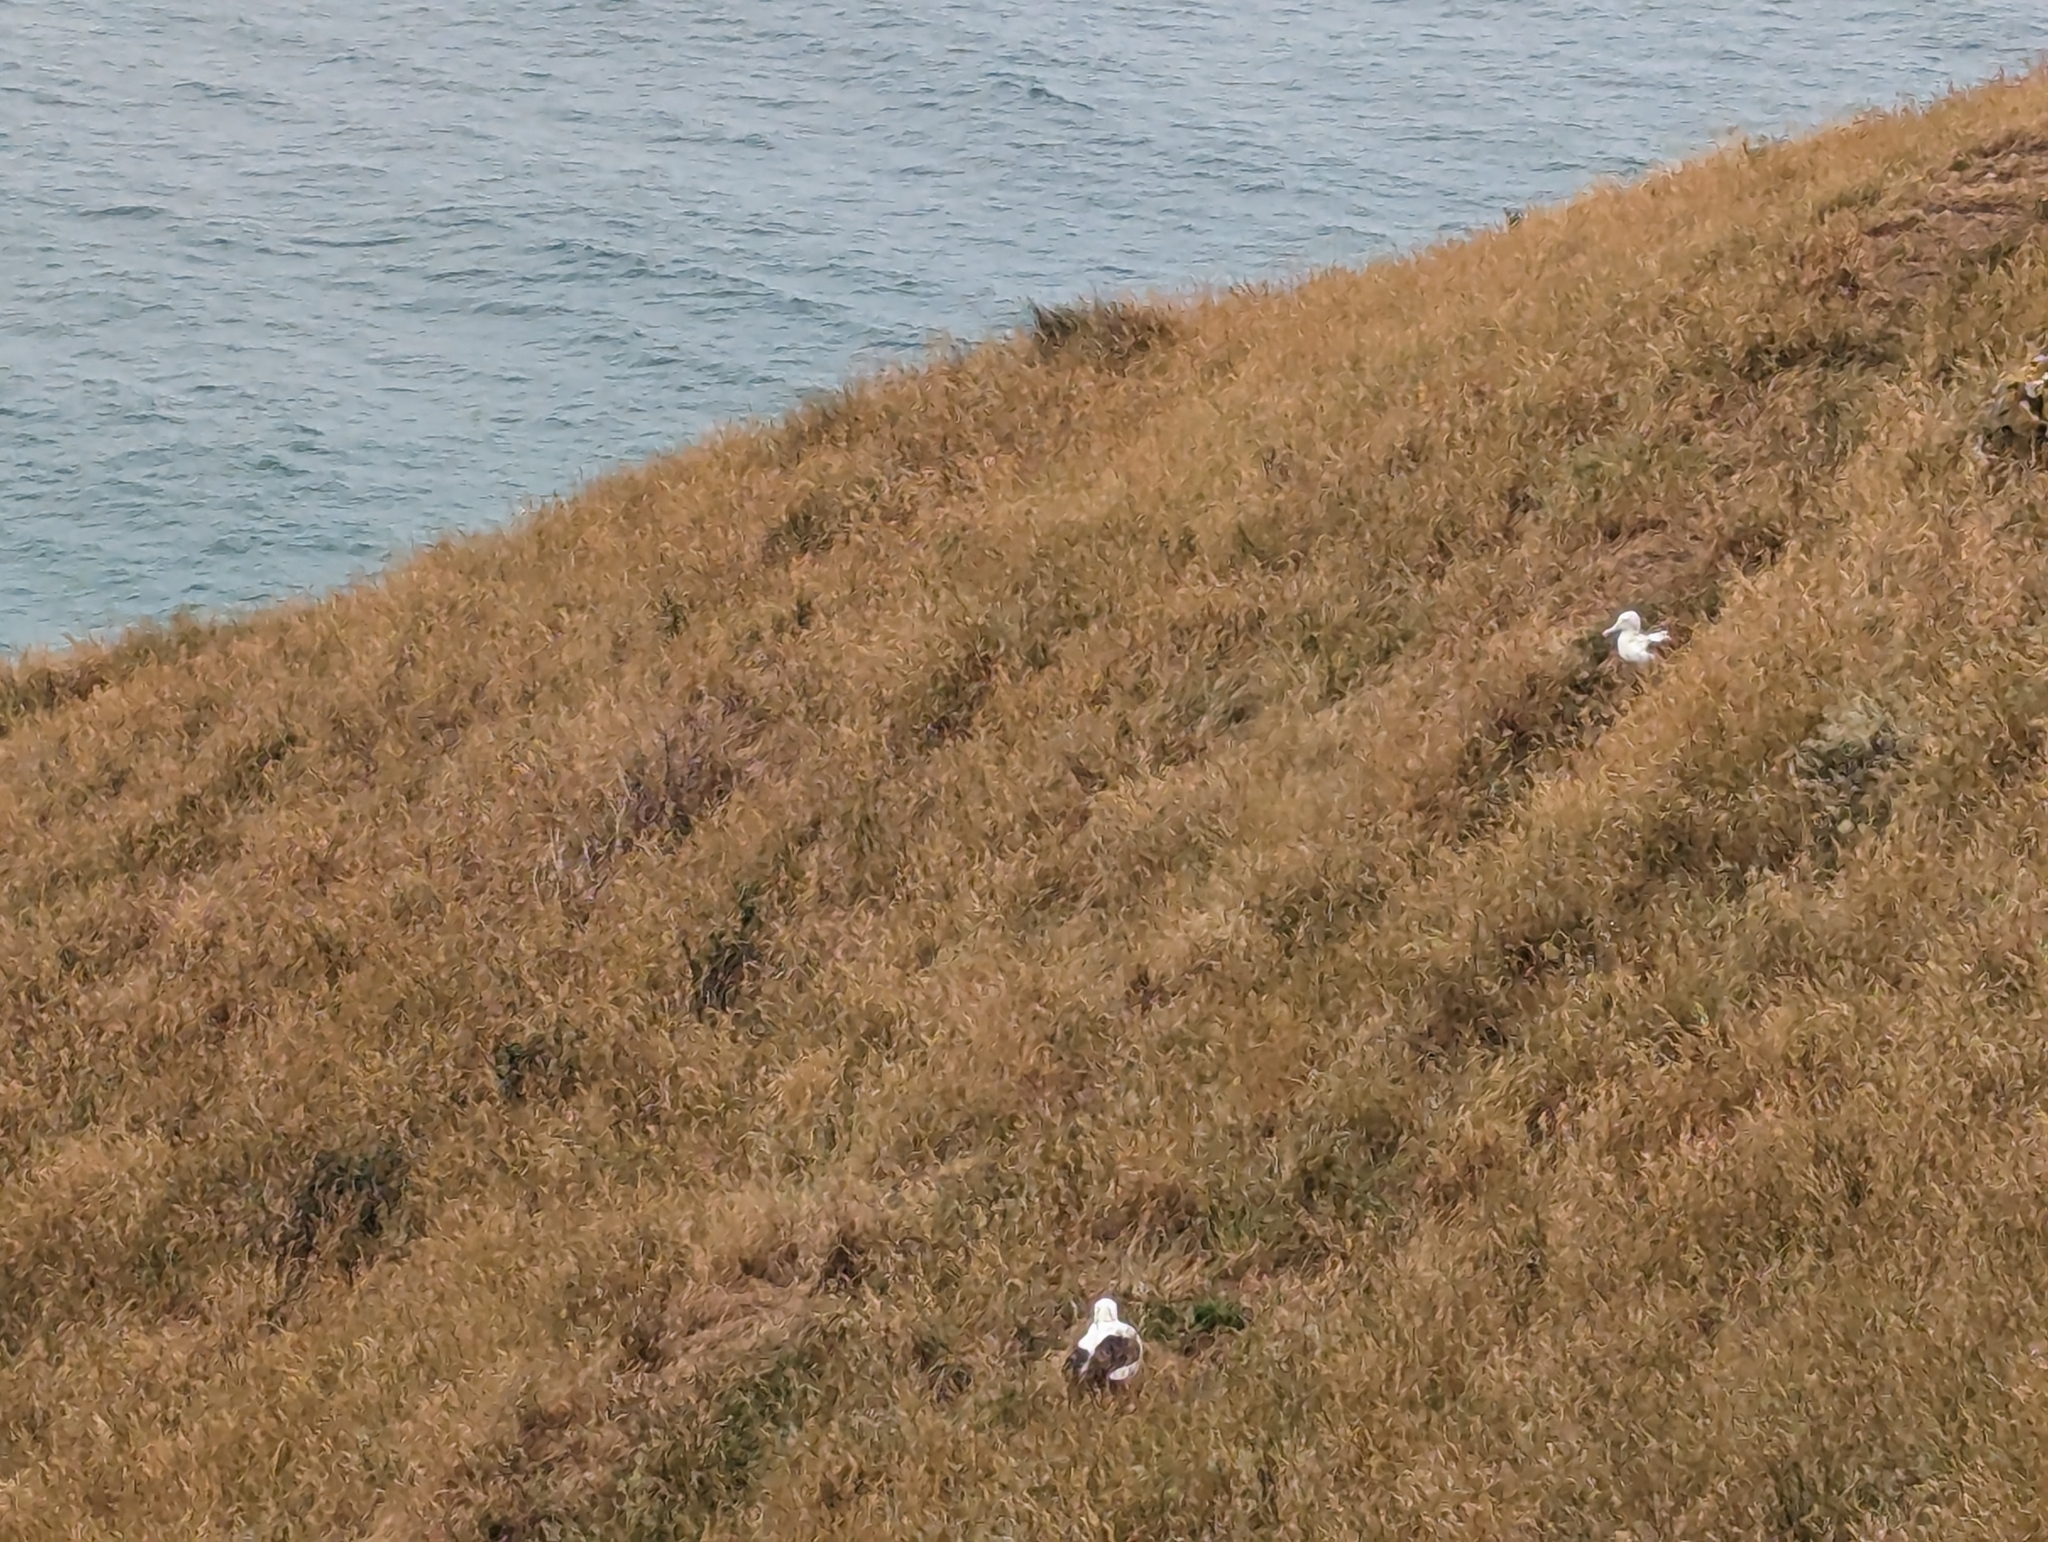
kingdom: Animalia
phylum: Chordata
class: Aves
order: Procellariiformes
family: Diomedeidae
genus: Diomedea
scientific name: Diomedea sanfordi
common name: Northern royal albatross
